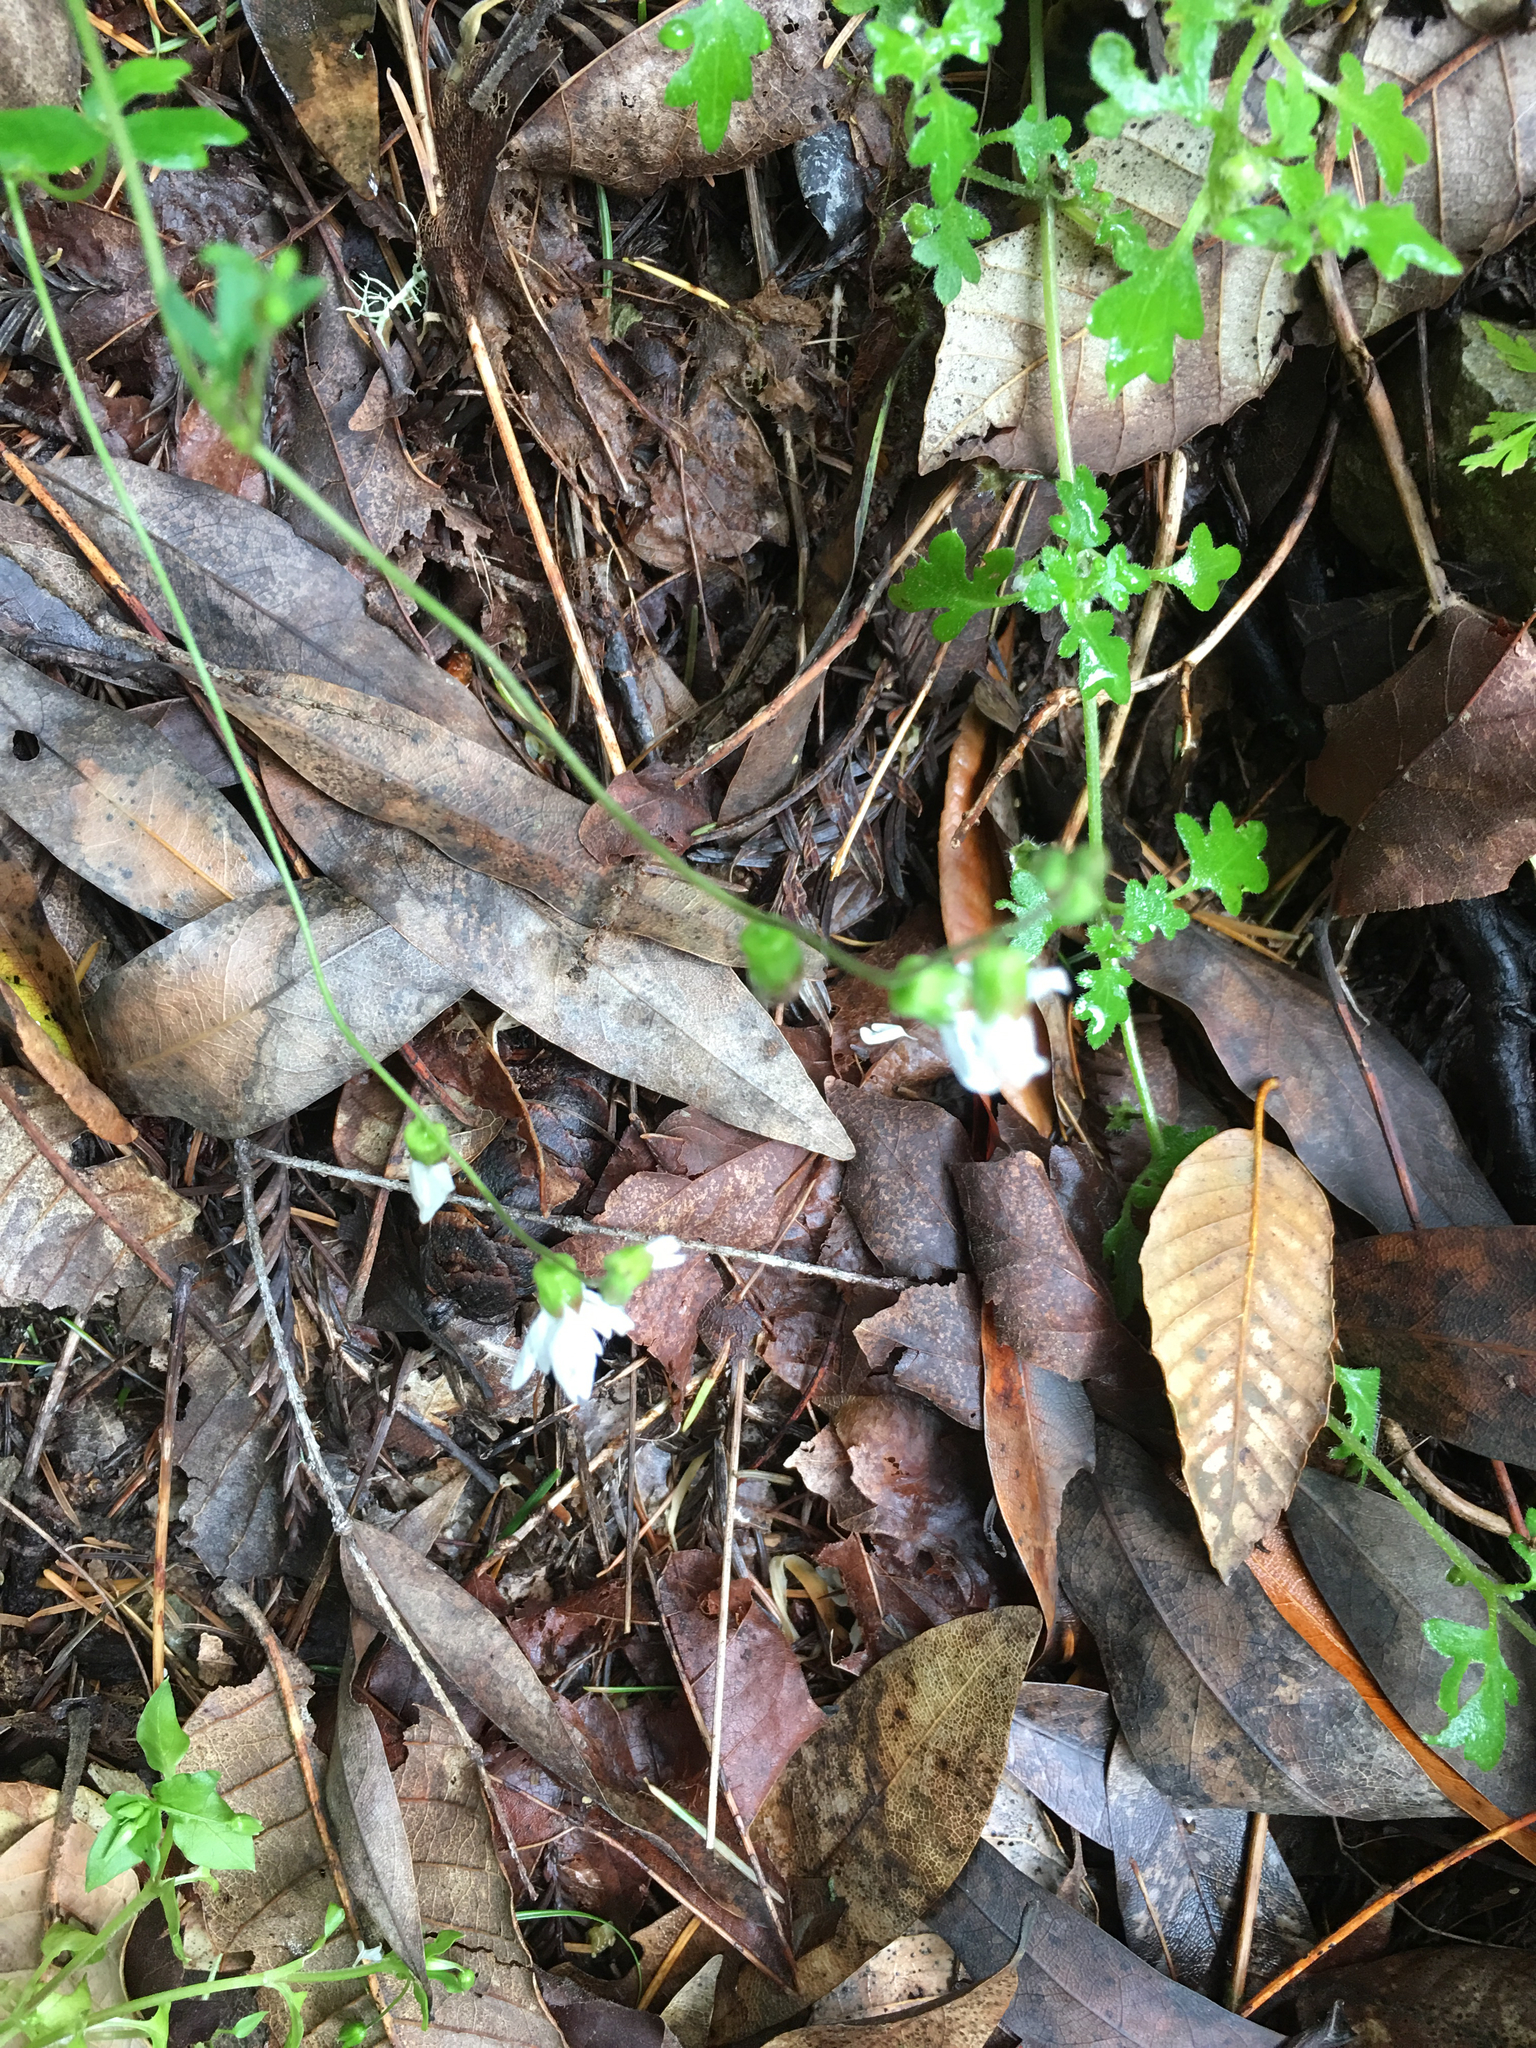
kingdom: Plantae
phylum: Tracheophyta
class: Magnoliopsida
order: Saxifragales
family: Saxifragaceae
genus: Lithophragma
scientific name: Lithophragma heterophyllum
